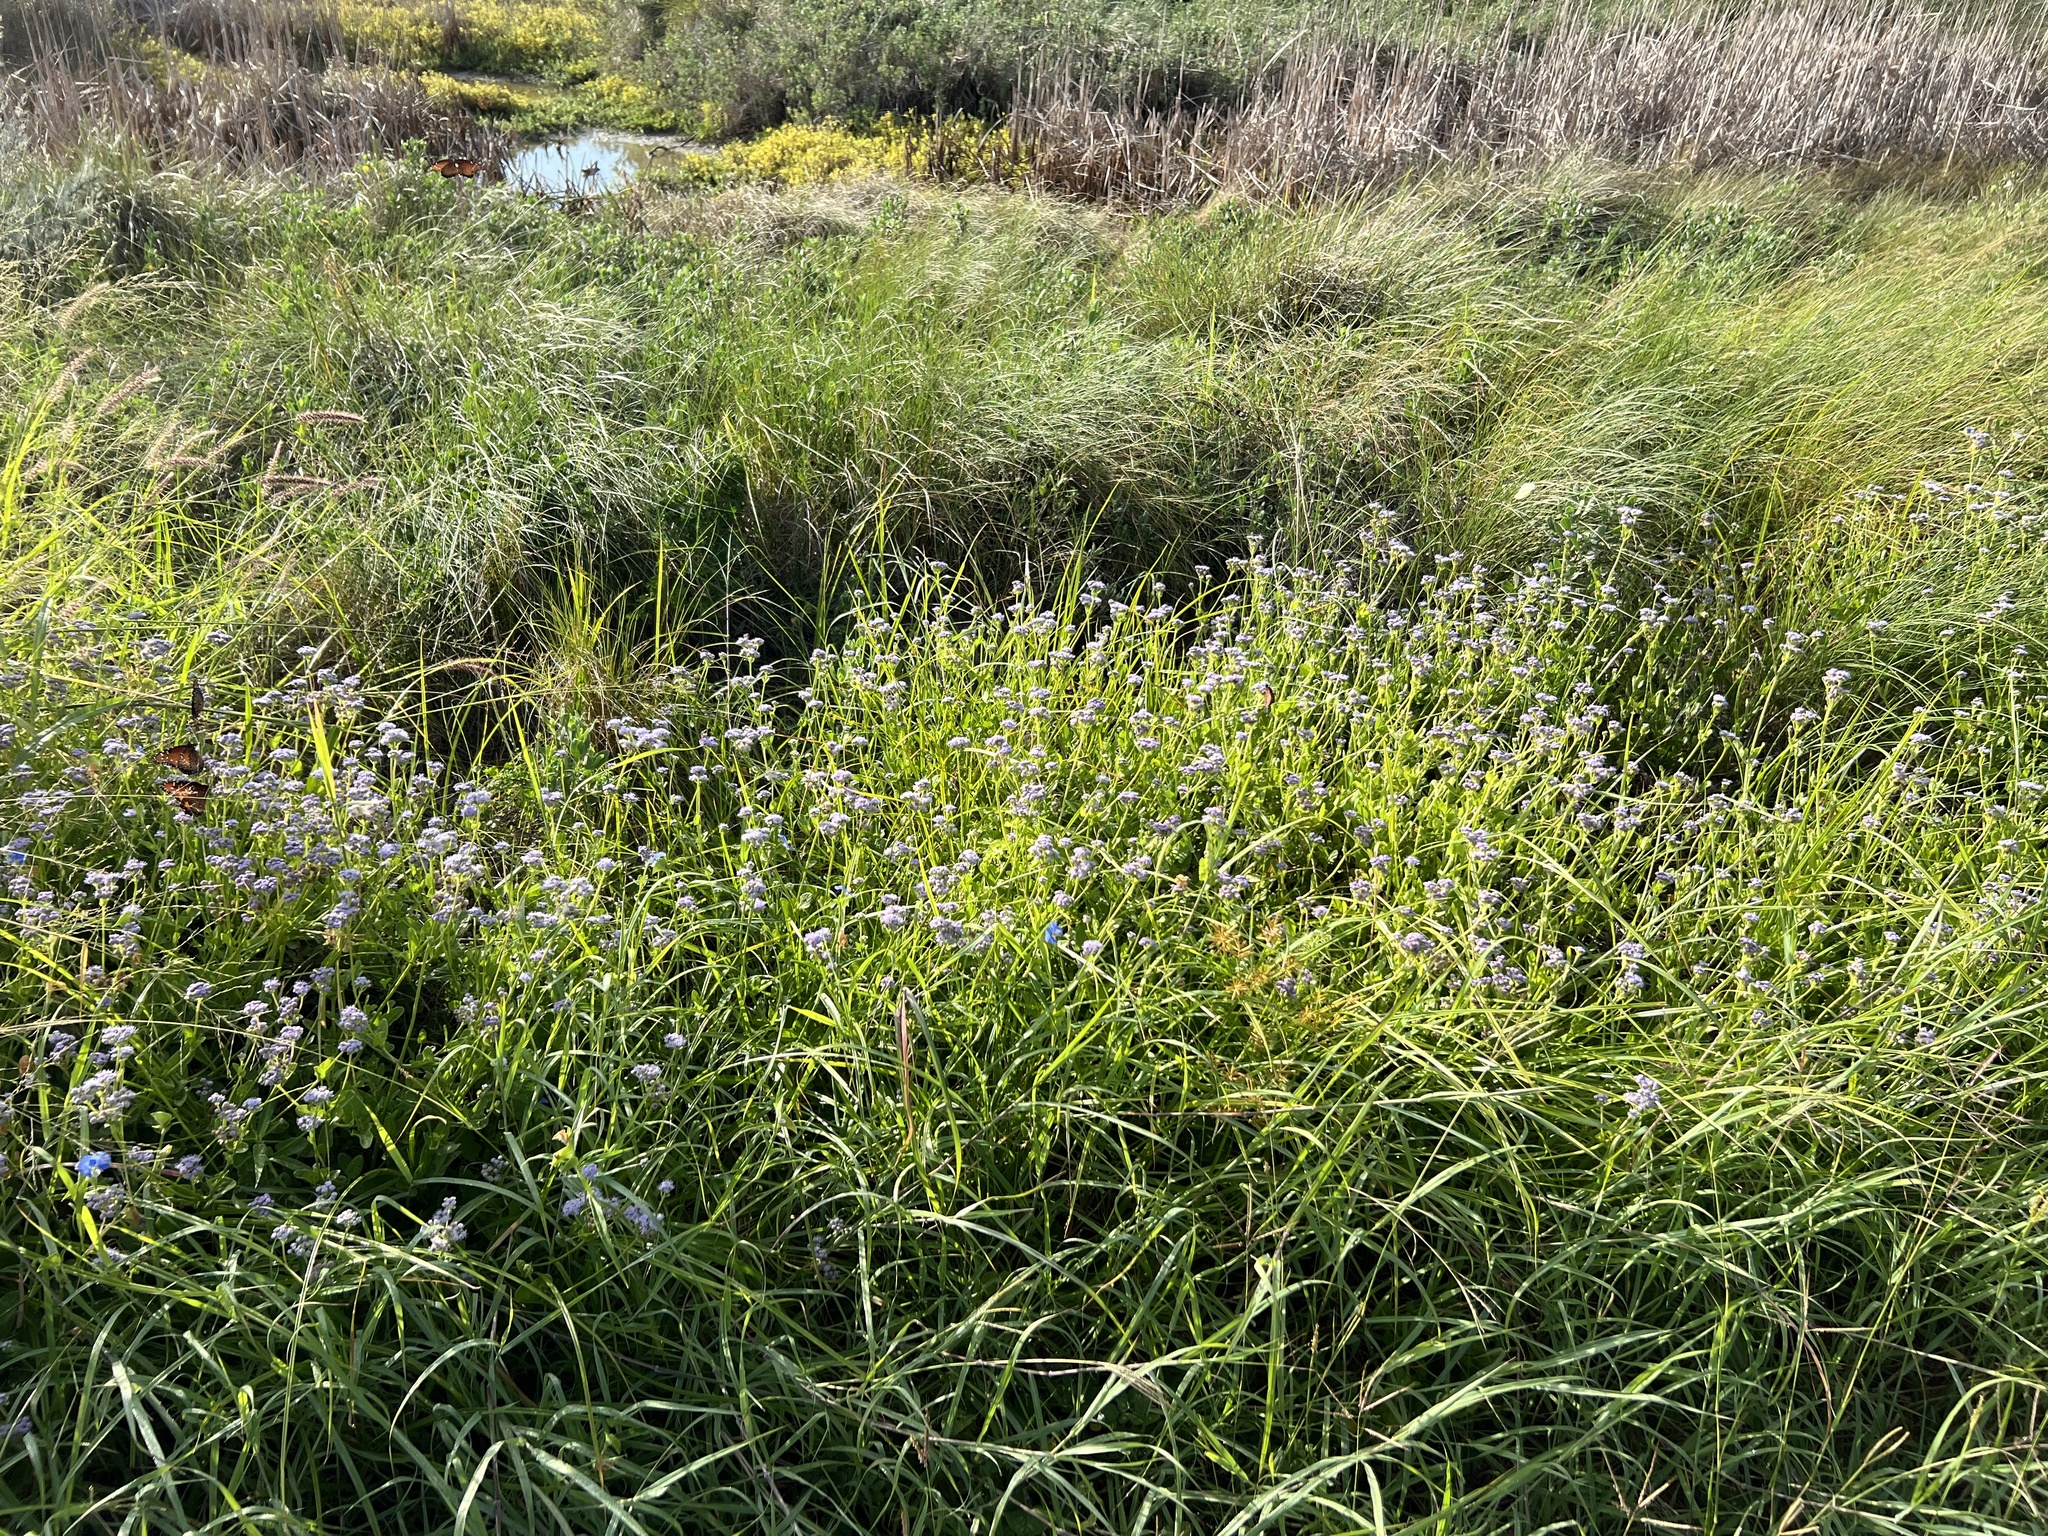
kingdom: Plantae
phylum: Tracheophyta
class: Magnoliopsida
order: Asterales
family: Asteraceae
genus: Conoclinium
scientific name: Conoclinium betonicifolium
